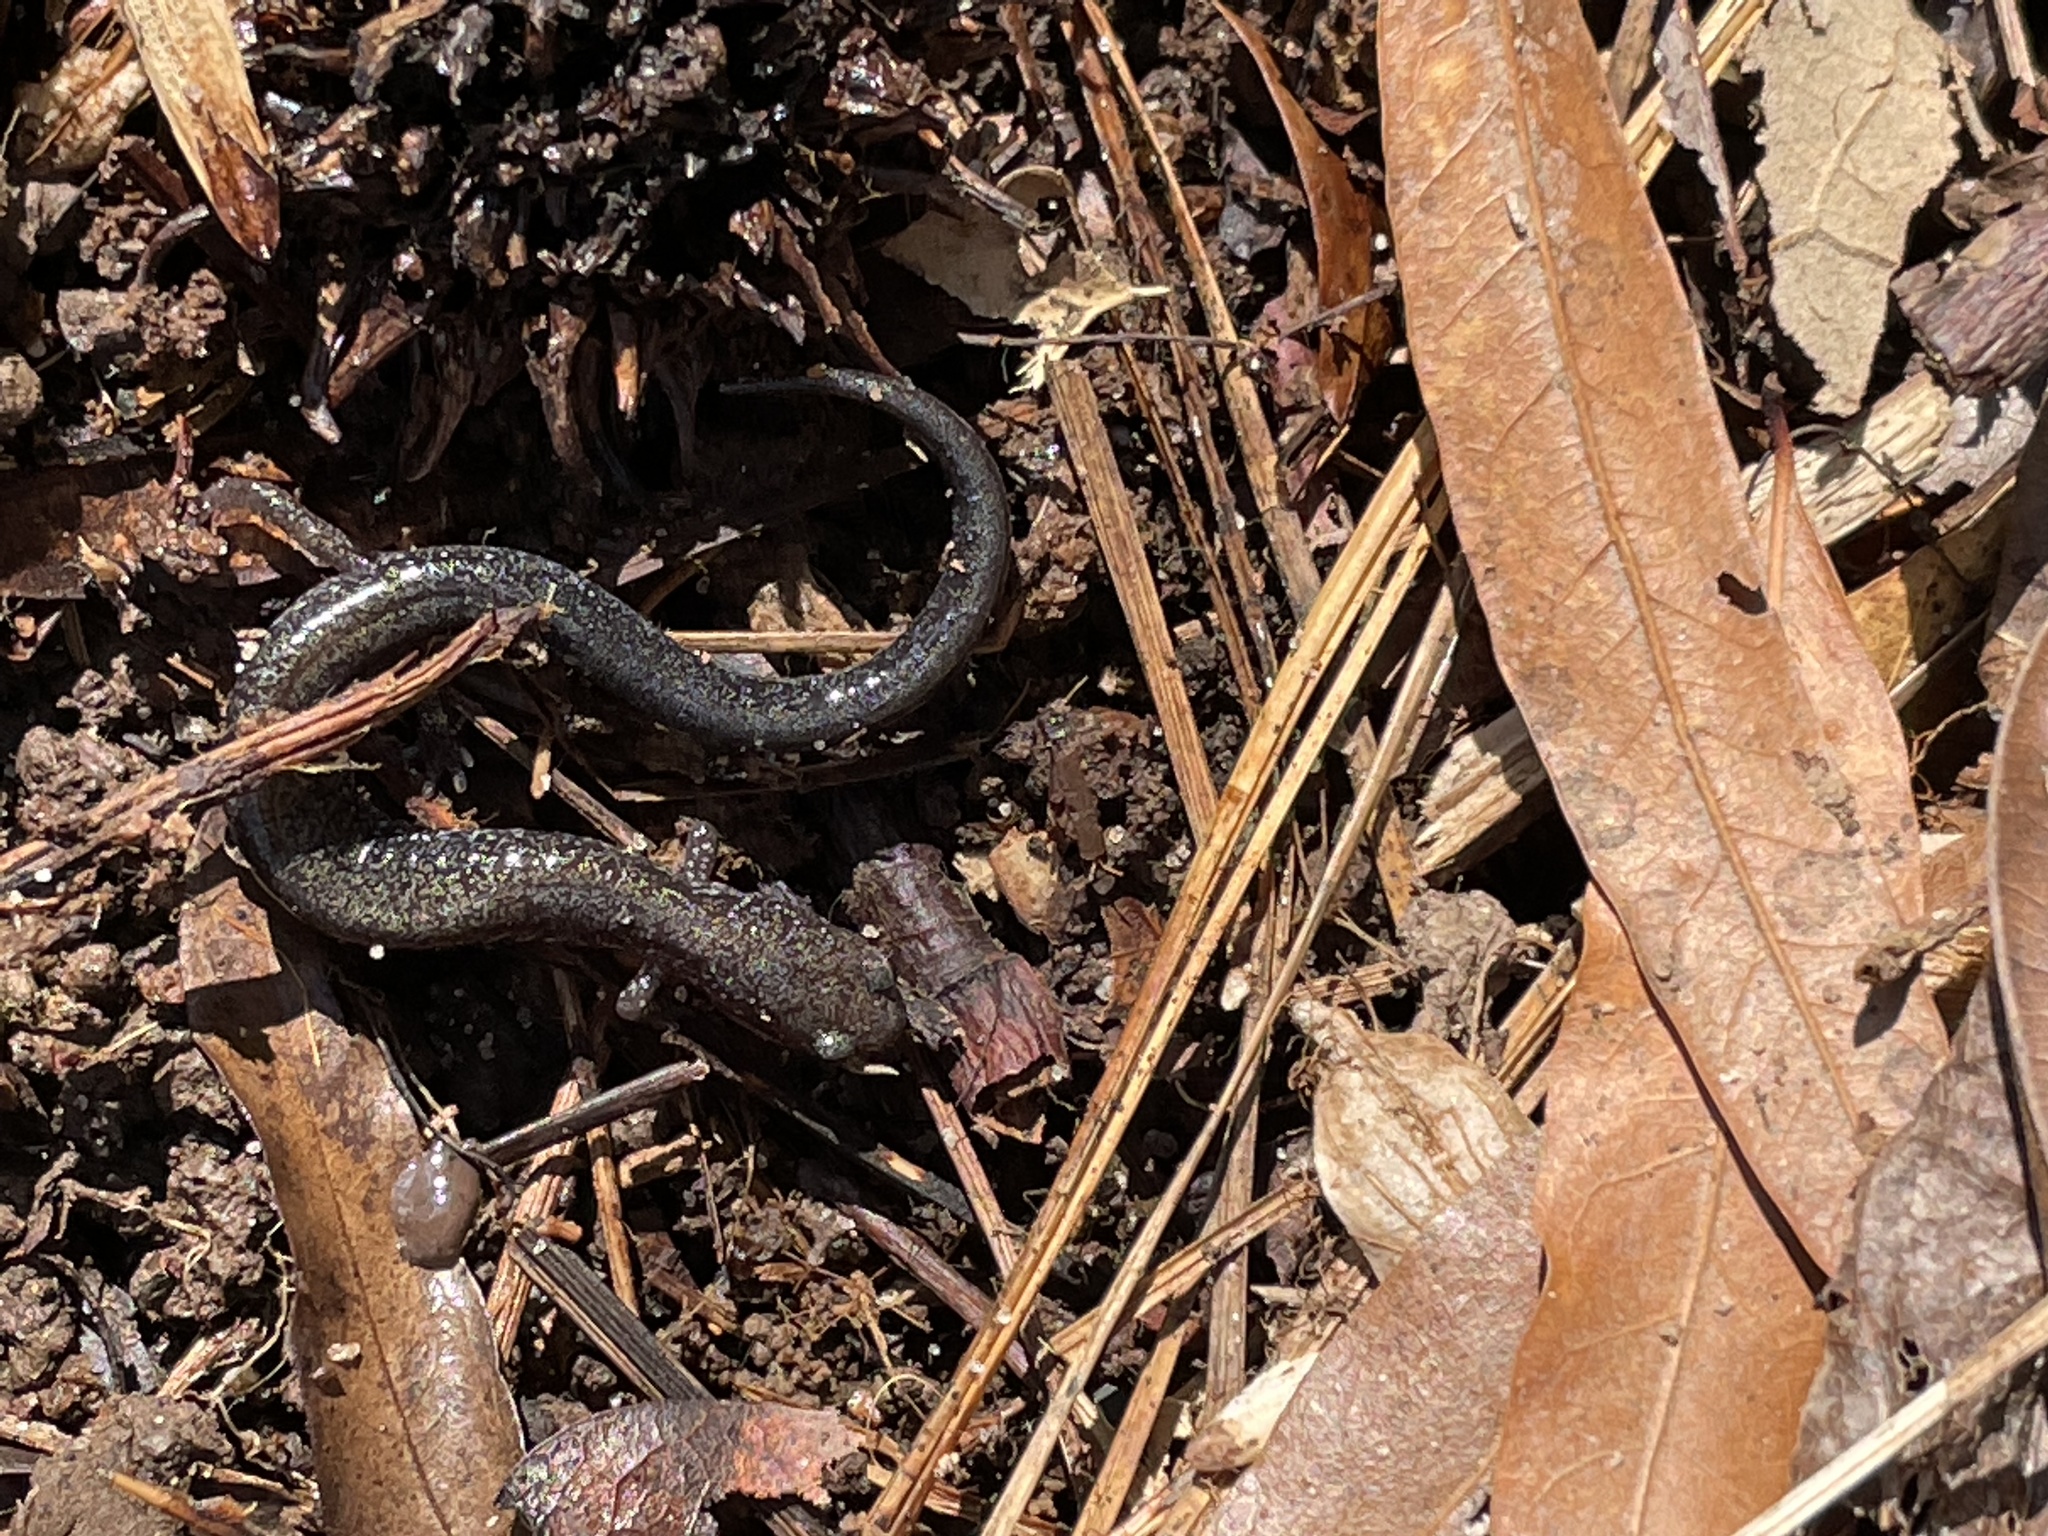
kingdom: Animalia
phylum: Chordata
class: Amphibia
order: Caudata
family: Plethodontidae
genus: Plethodon
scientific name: Plethodon cinereus
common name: Redback salamander
